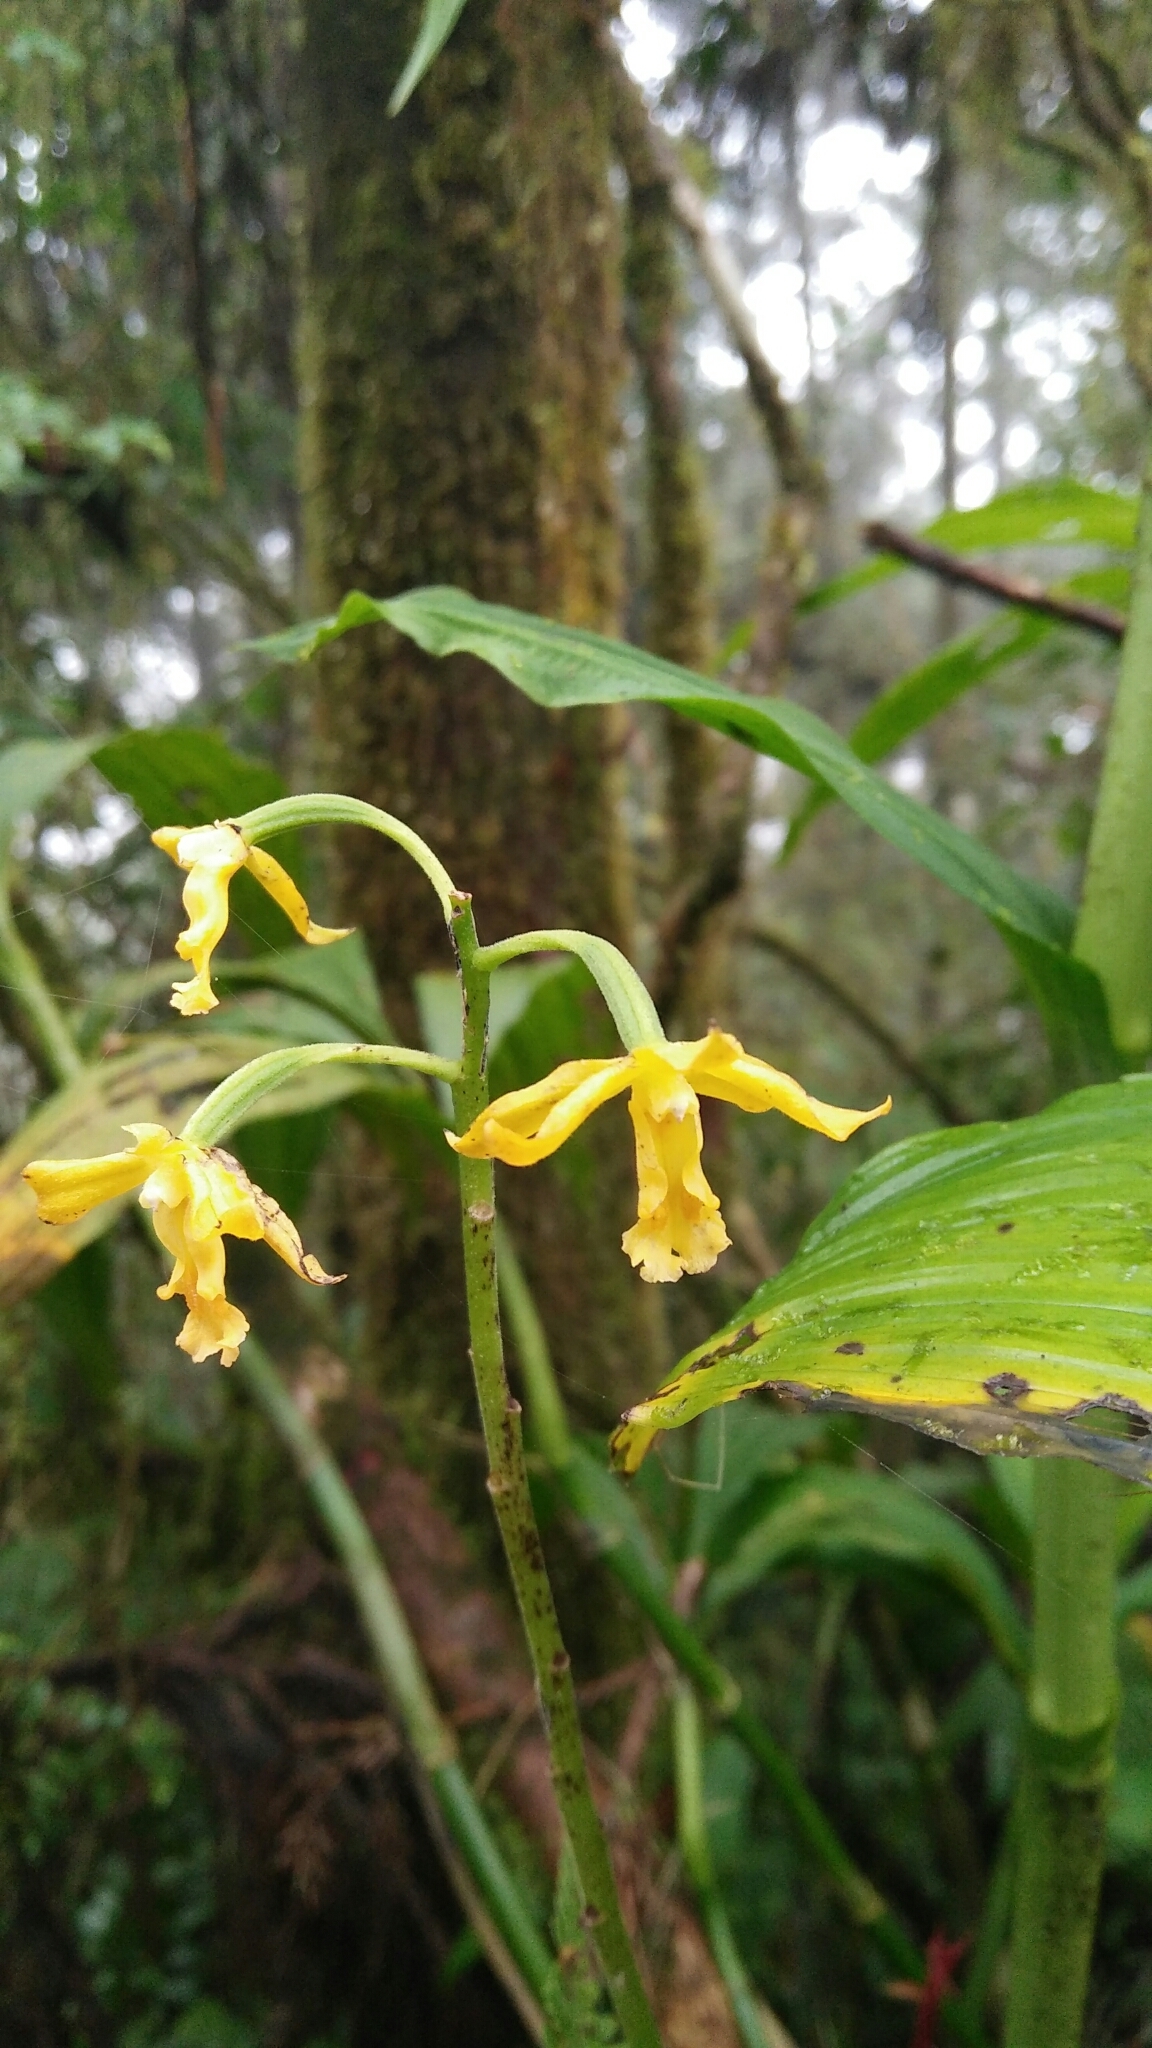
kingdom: Plantae
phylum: Tracheophyta
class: Liliopsida
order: Asparagales
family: Orchidaceae
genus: Calanthe
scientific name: Calanthe obcordata
